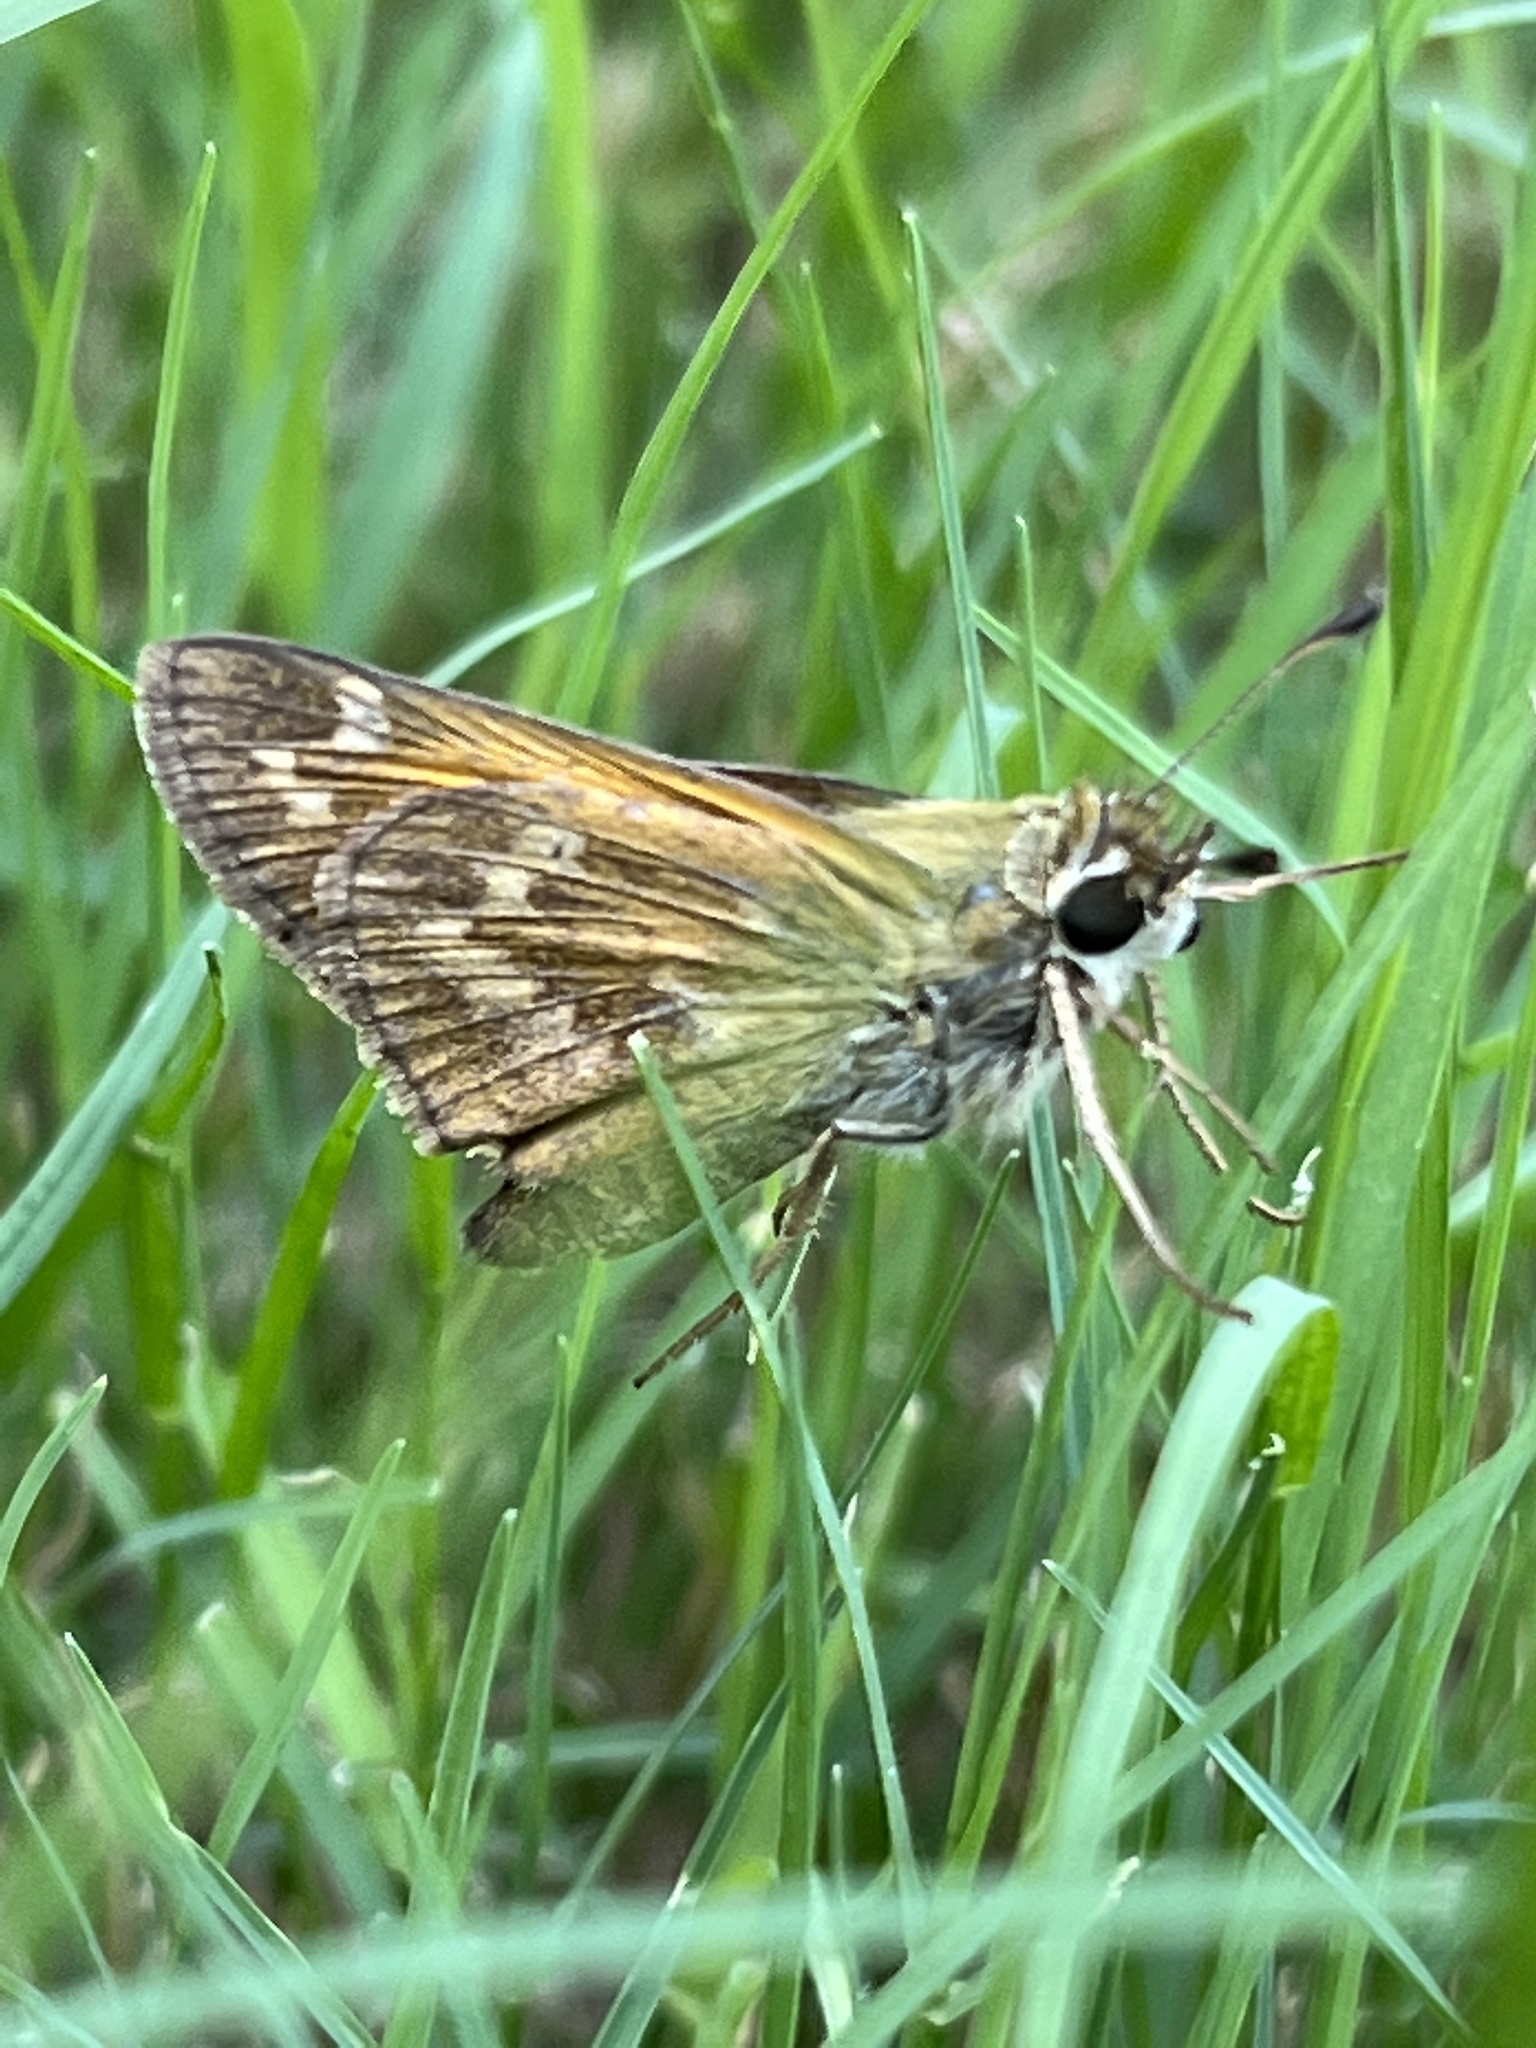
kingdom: Animalia
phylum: Arthropoda
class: Insecta
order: Lepidoptera
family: Hesperiidae
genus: Atalopedes
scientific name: Atalopedes
